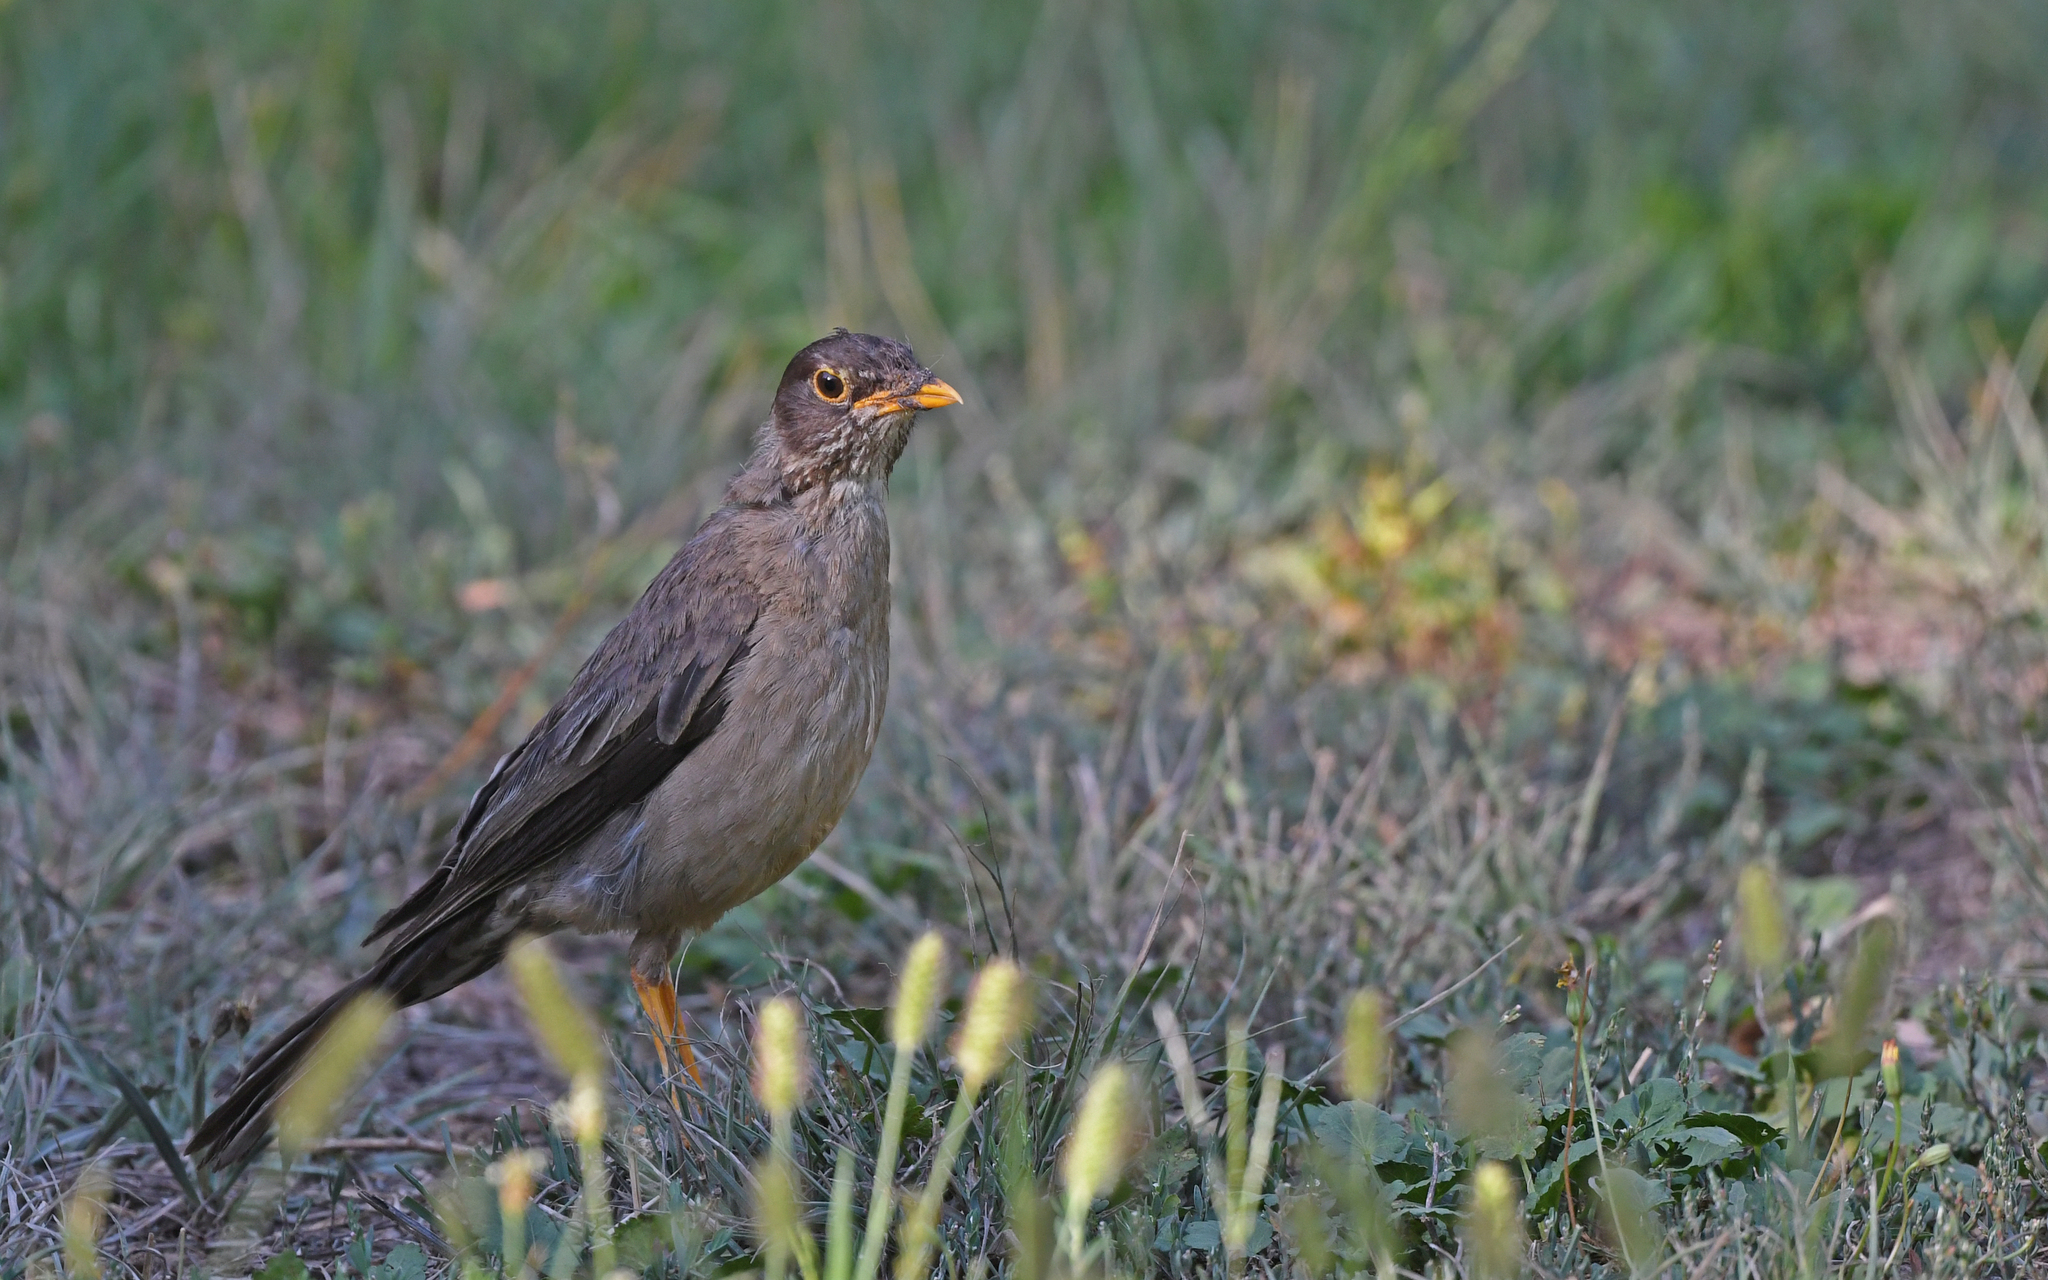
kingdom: Animalia
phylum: Chordata
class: Aves
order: Passeriformes
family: Turdidae
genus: Turdus
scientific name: Turdus falcklandii
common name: Austral thrush
